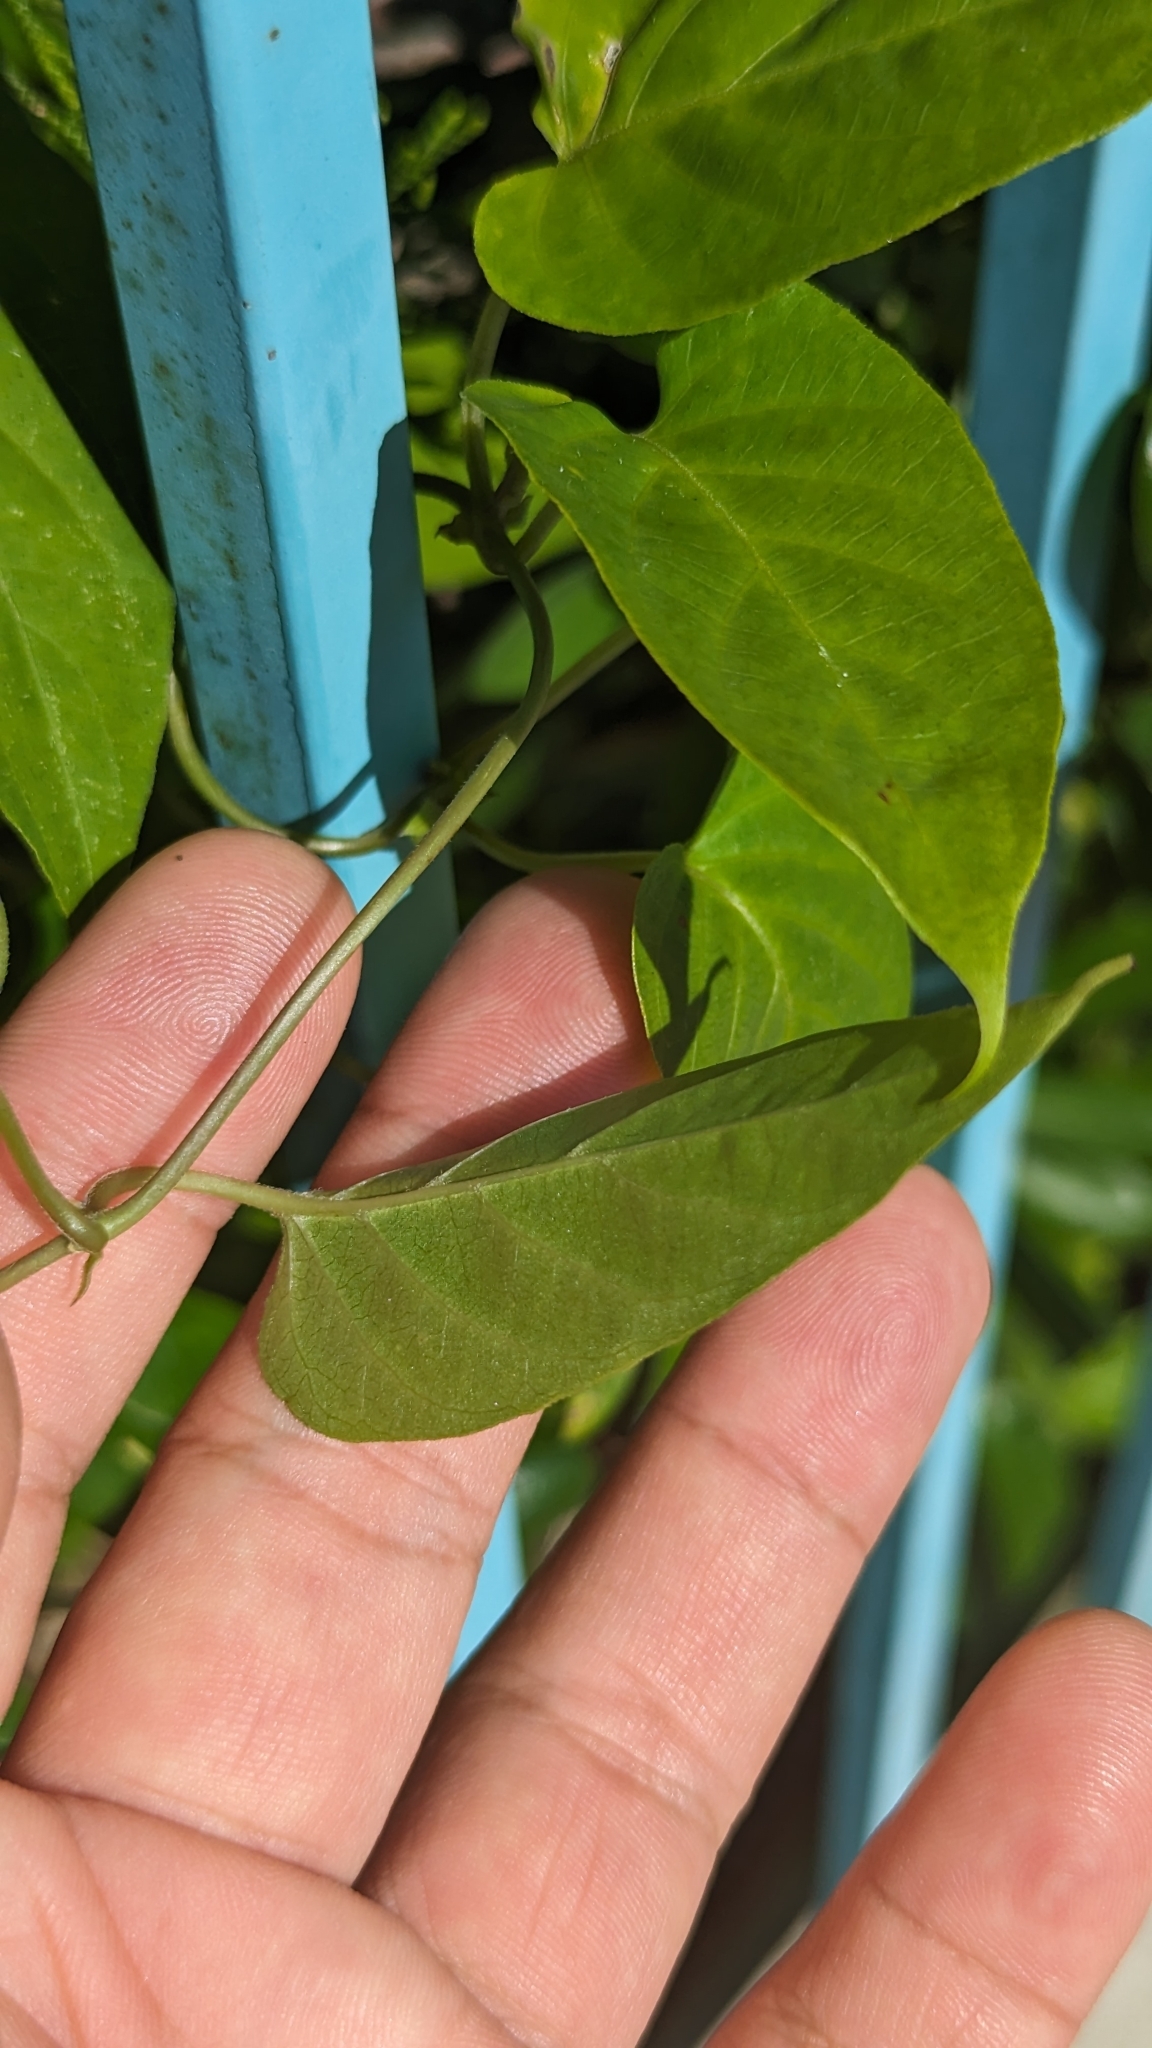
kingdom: Plantae
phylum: Tracheophyta
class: Magnoliopsida
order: Gentianales
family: Rubiaceae
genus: Paederia
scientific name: Paederia foetida
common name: Stinkvine
